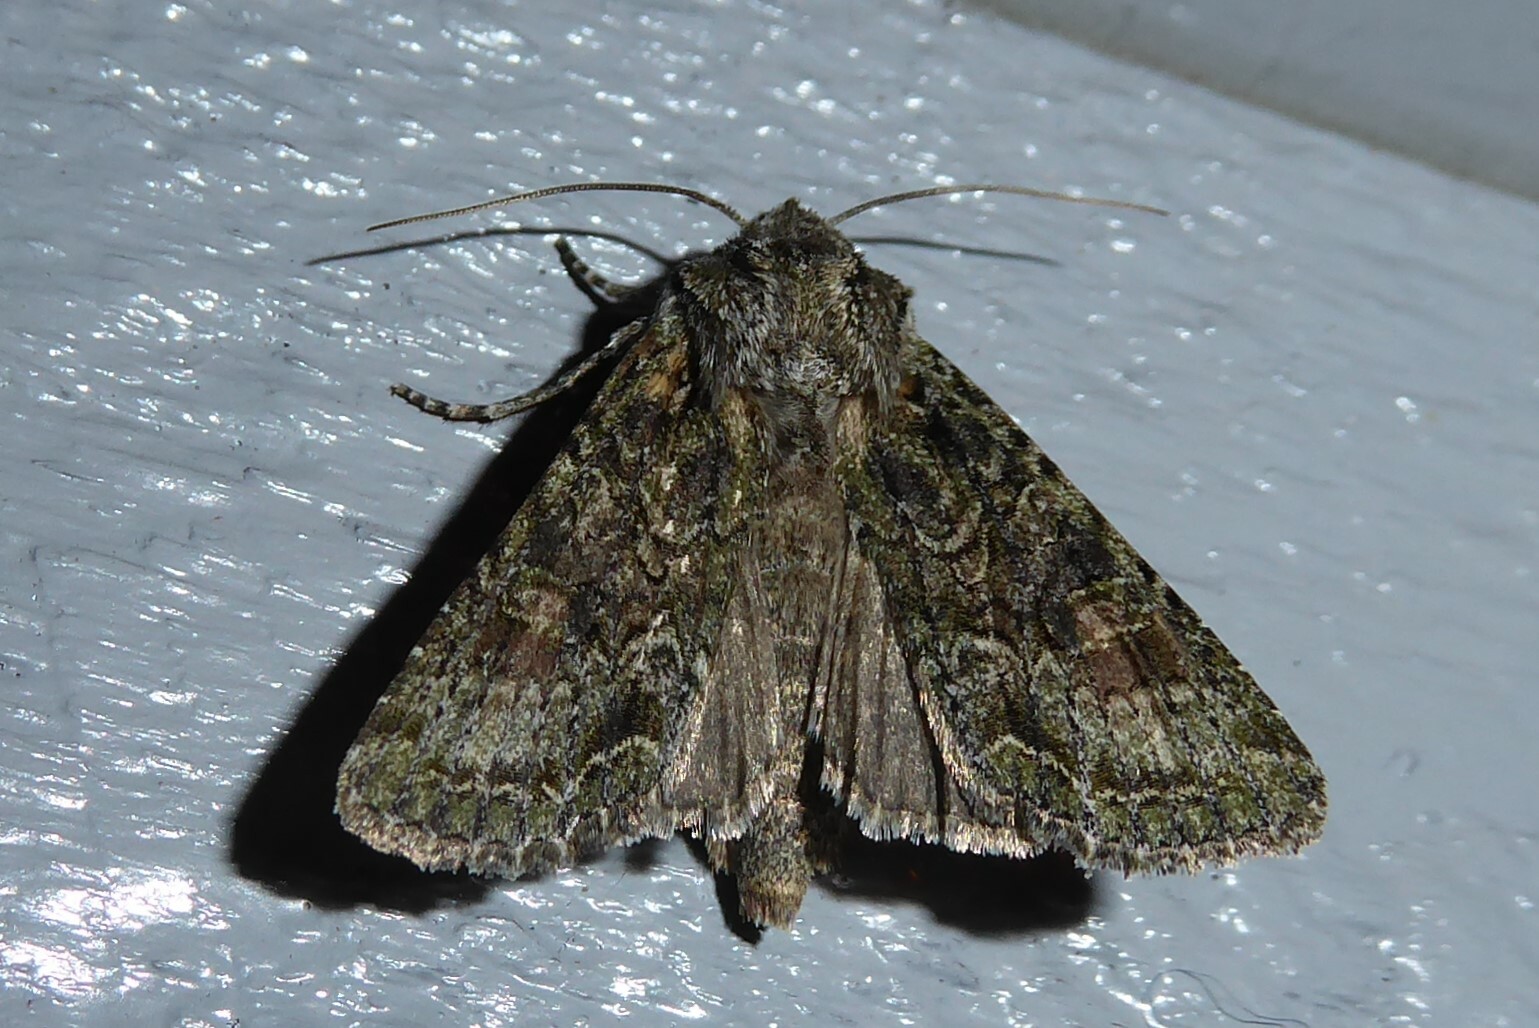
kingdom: Animalia
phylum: Arthropoda
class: Insecta
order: Lepidoptera
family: Noctuidae
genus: Ichneutica
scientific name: Ichneutica mutans
